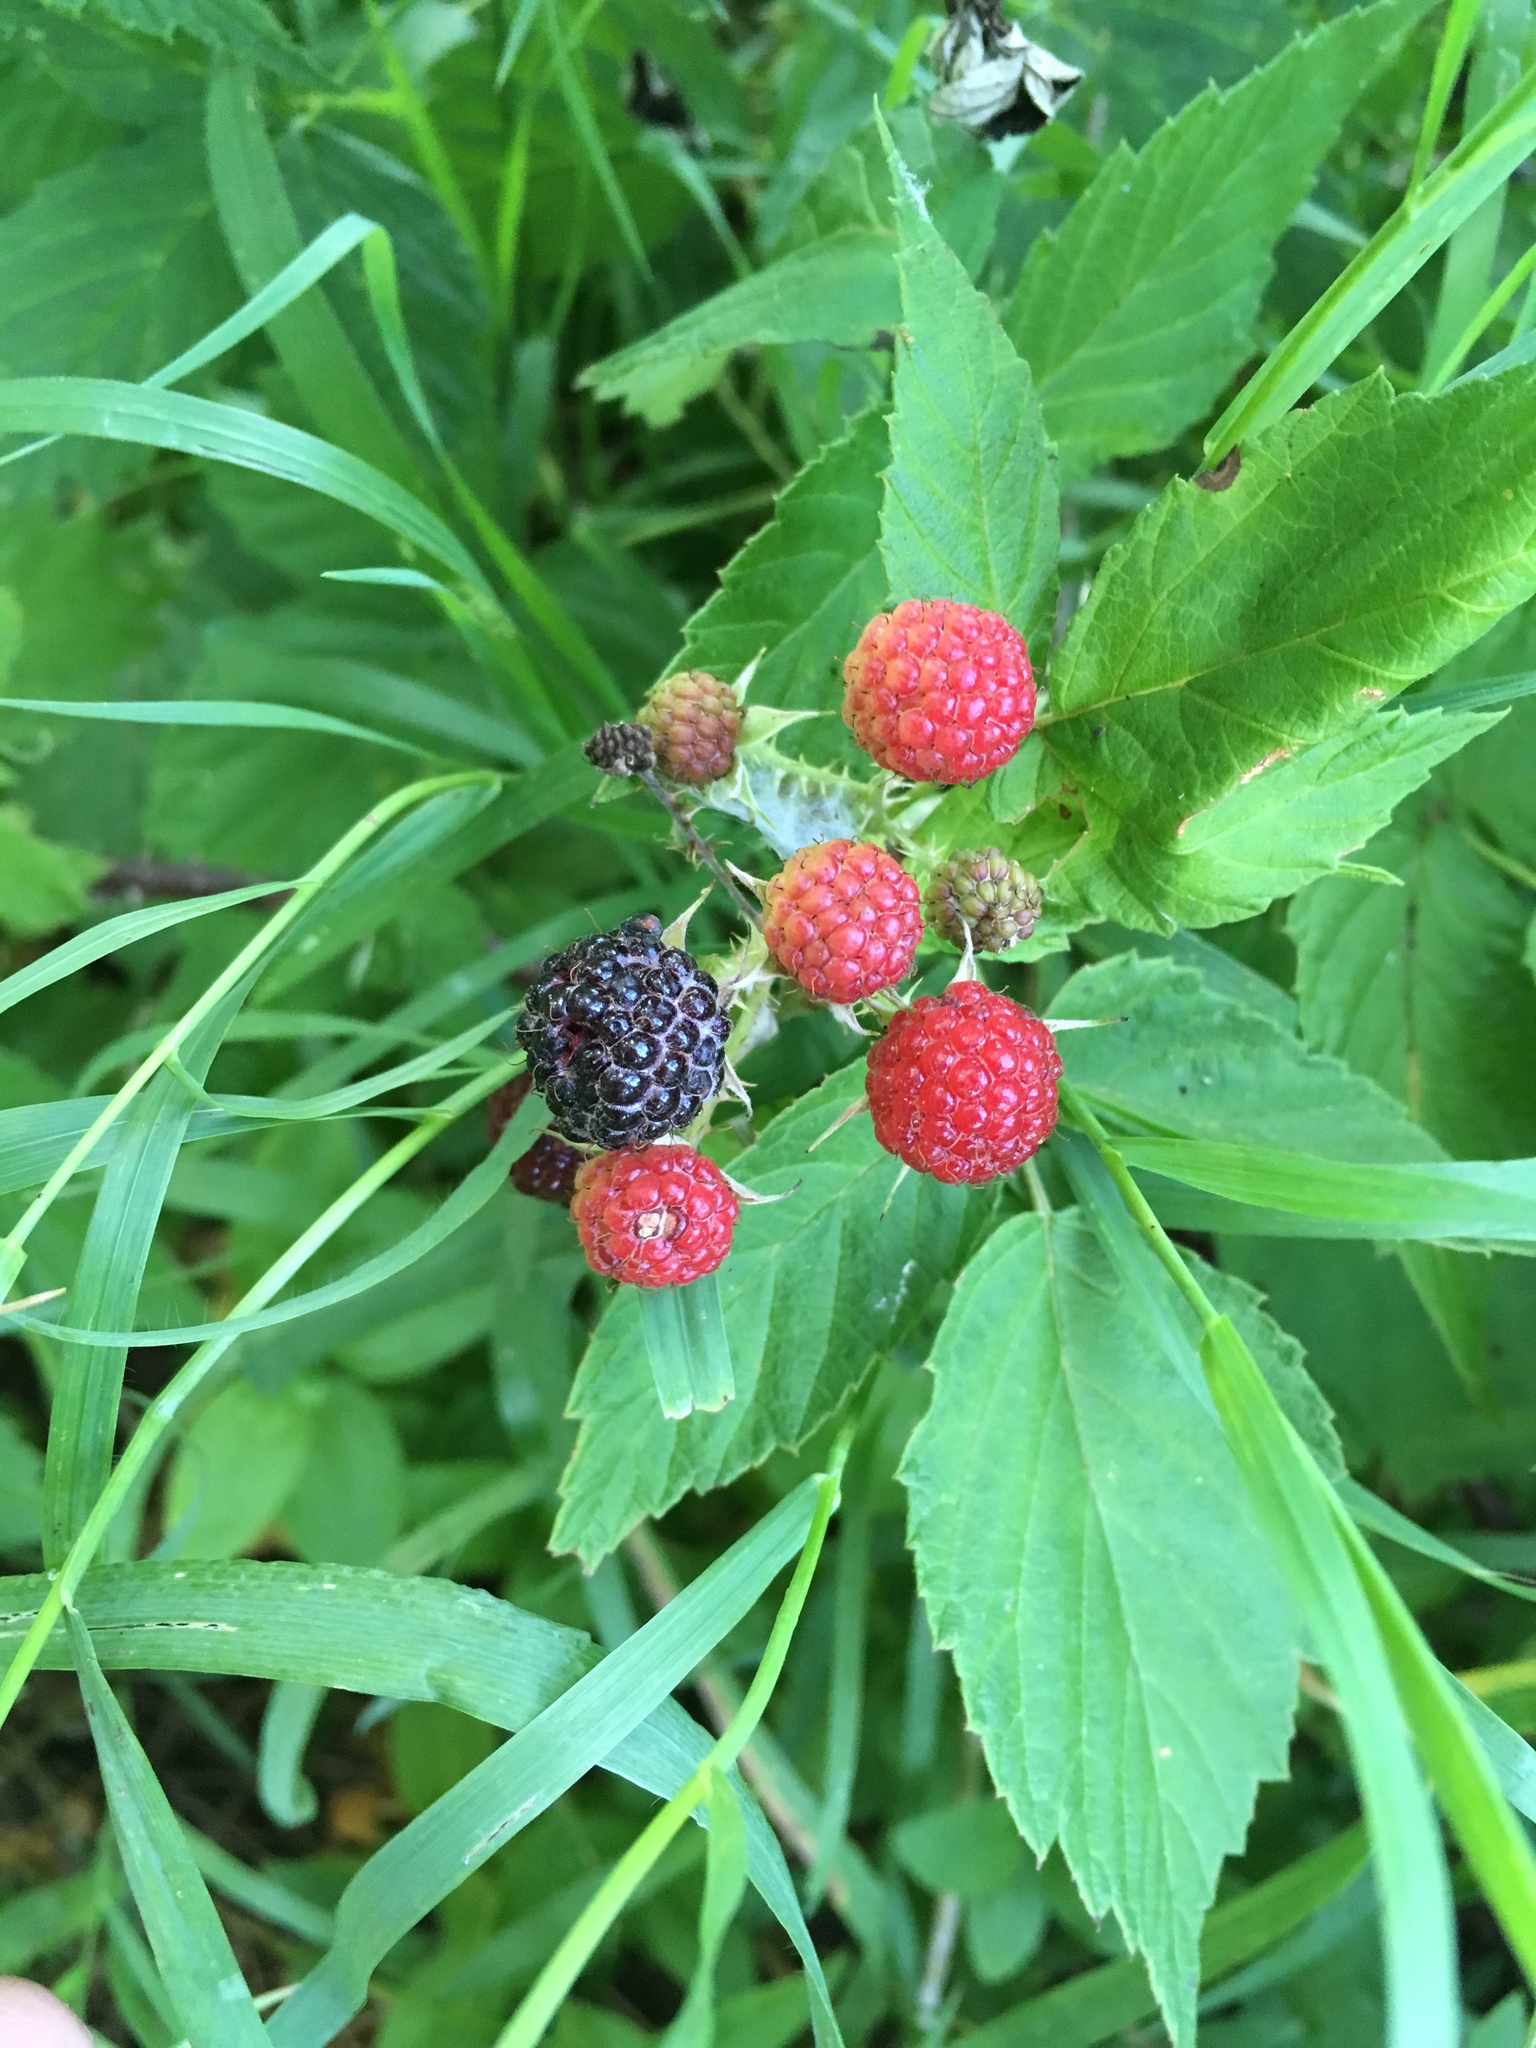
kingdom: Plantae
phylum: Tracheophyta
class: Magnoliopsida
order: Rosales
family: Rosaceae
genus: Rubus
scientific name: Rubus occidentalis
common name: Black raspberry
